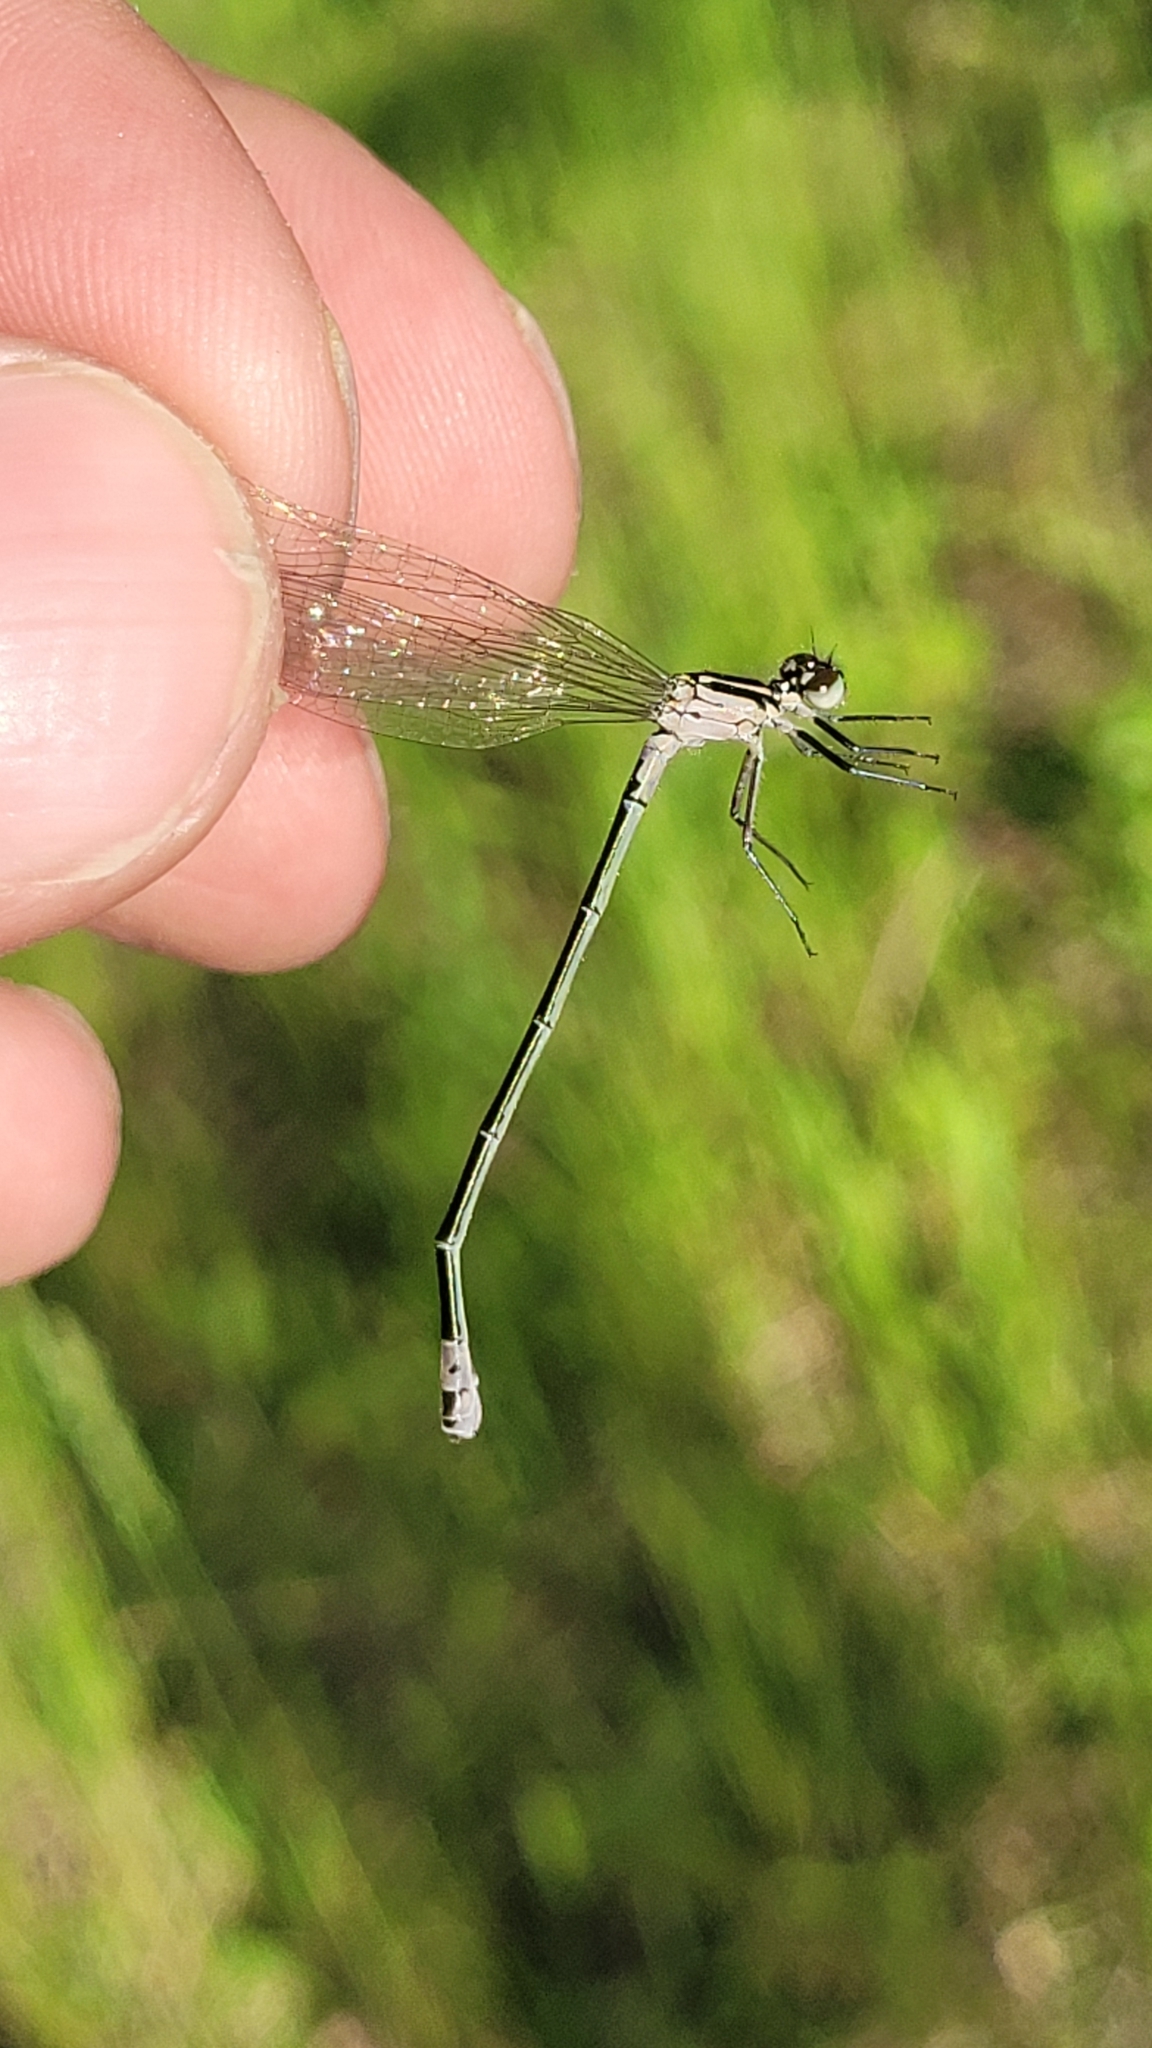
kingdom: Animalia
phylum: Arthropoda
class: Insecta
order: Odonata
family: Coenagrionidae
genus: Coenagrion
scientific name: Coenagrion pulchellum
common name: Variable bluet
